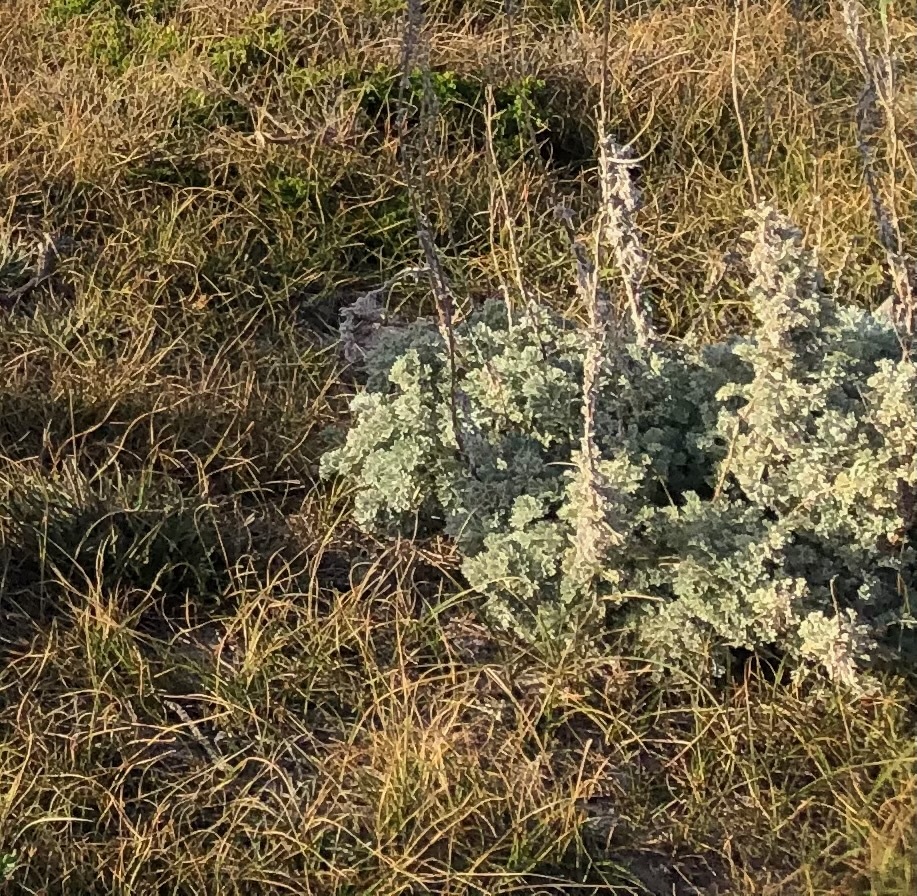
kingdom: Plantae
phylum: Tracheophyta
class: Magnoliopsida
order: Asterales
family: Asteraceae
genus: Artemisia
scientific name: Artemisia pycnocephala
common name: Coastal sagewort
